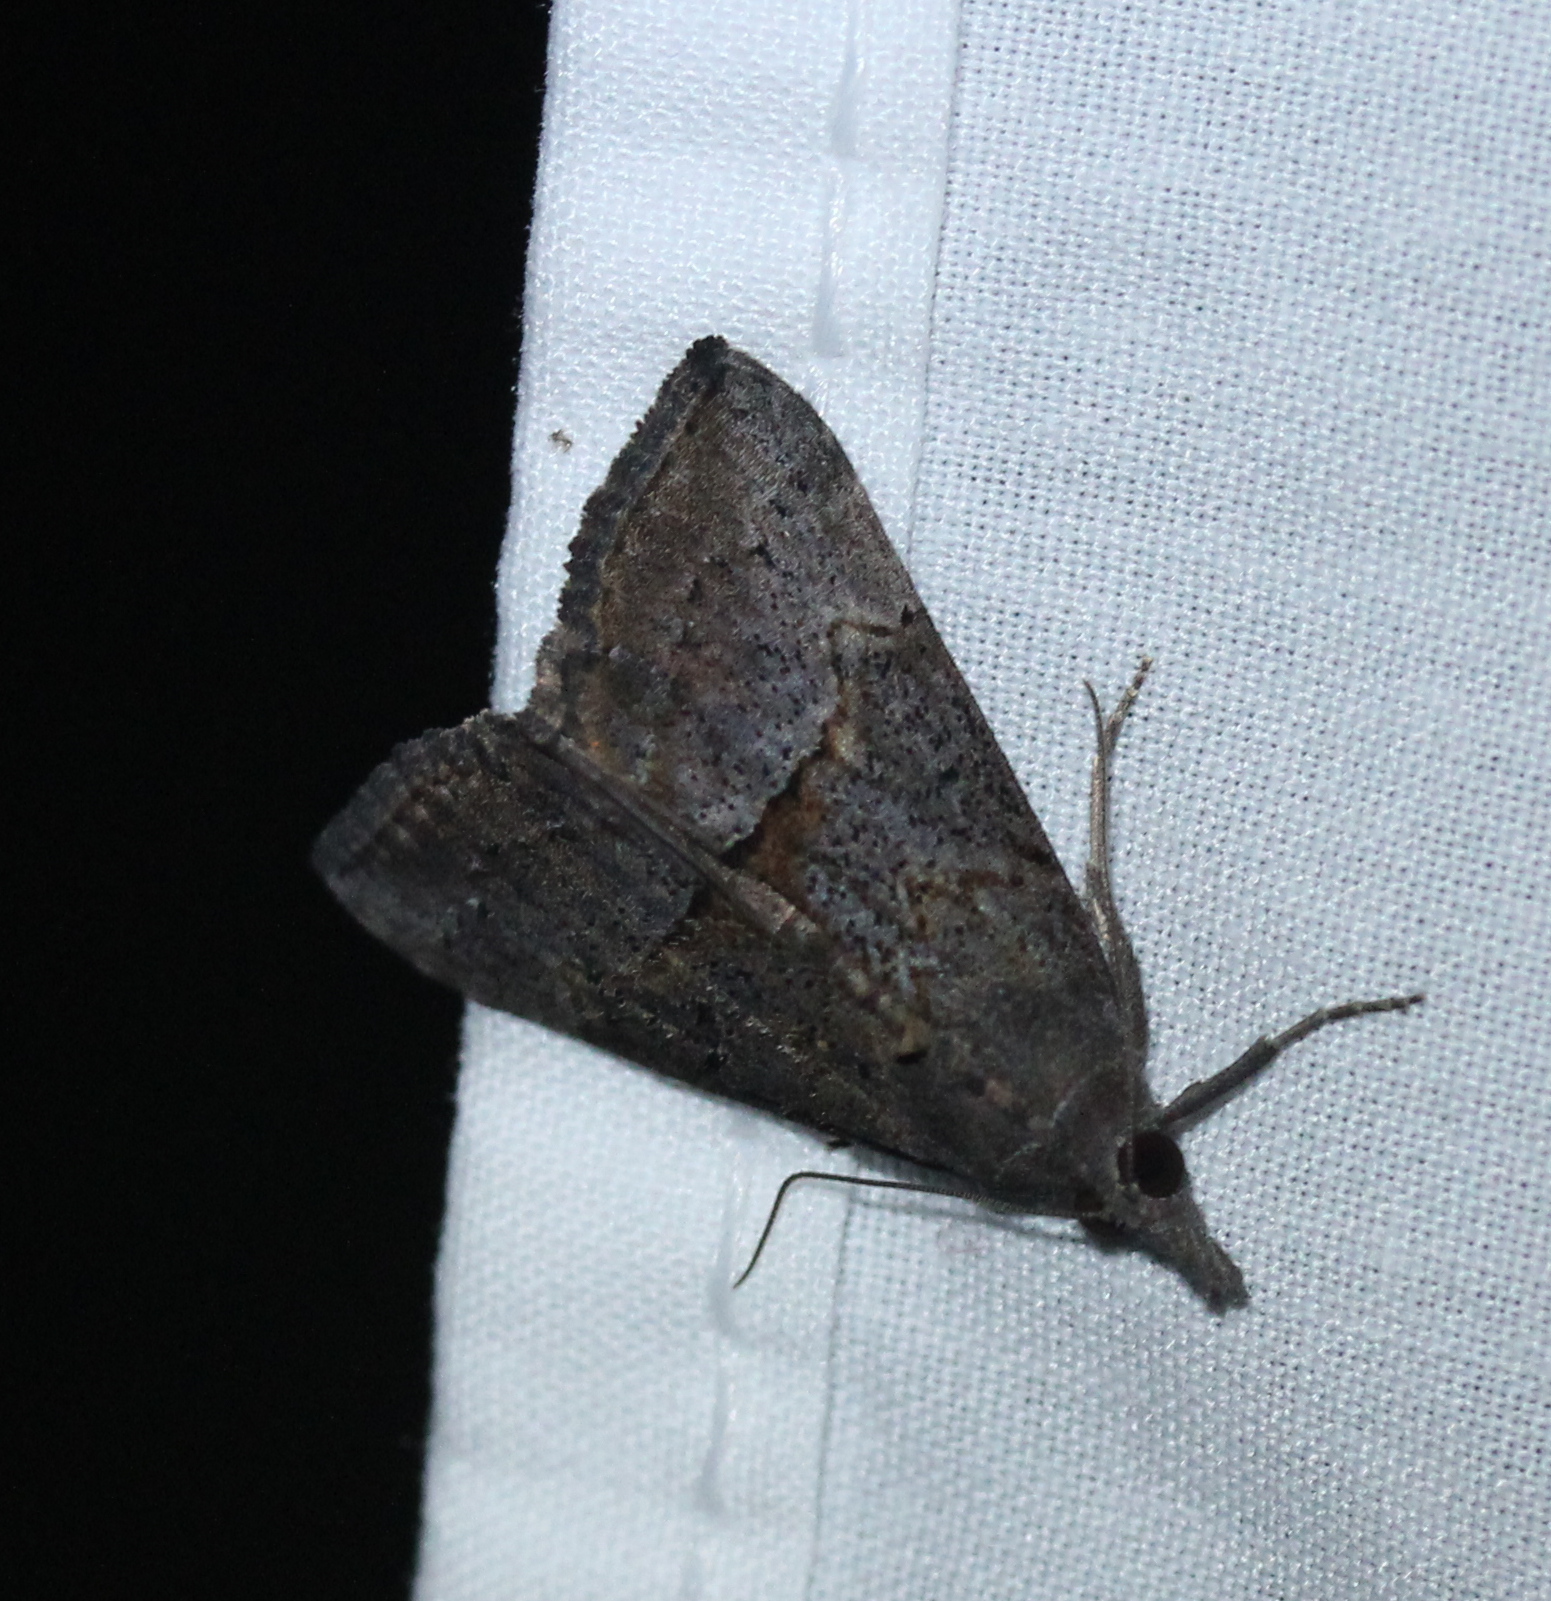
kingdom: Animalia
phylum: Arthropoda
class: Insecta
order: Lepidoptera
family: Erebidae
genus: Hypena
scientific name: Hypena scabra
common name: Green cloverworm
